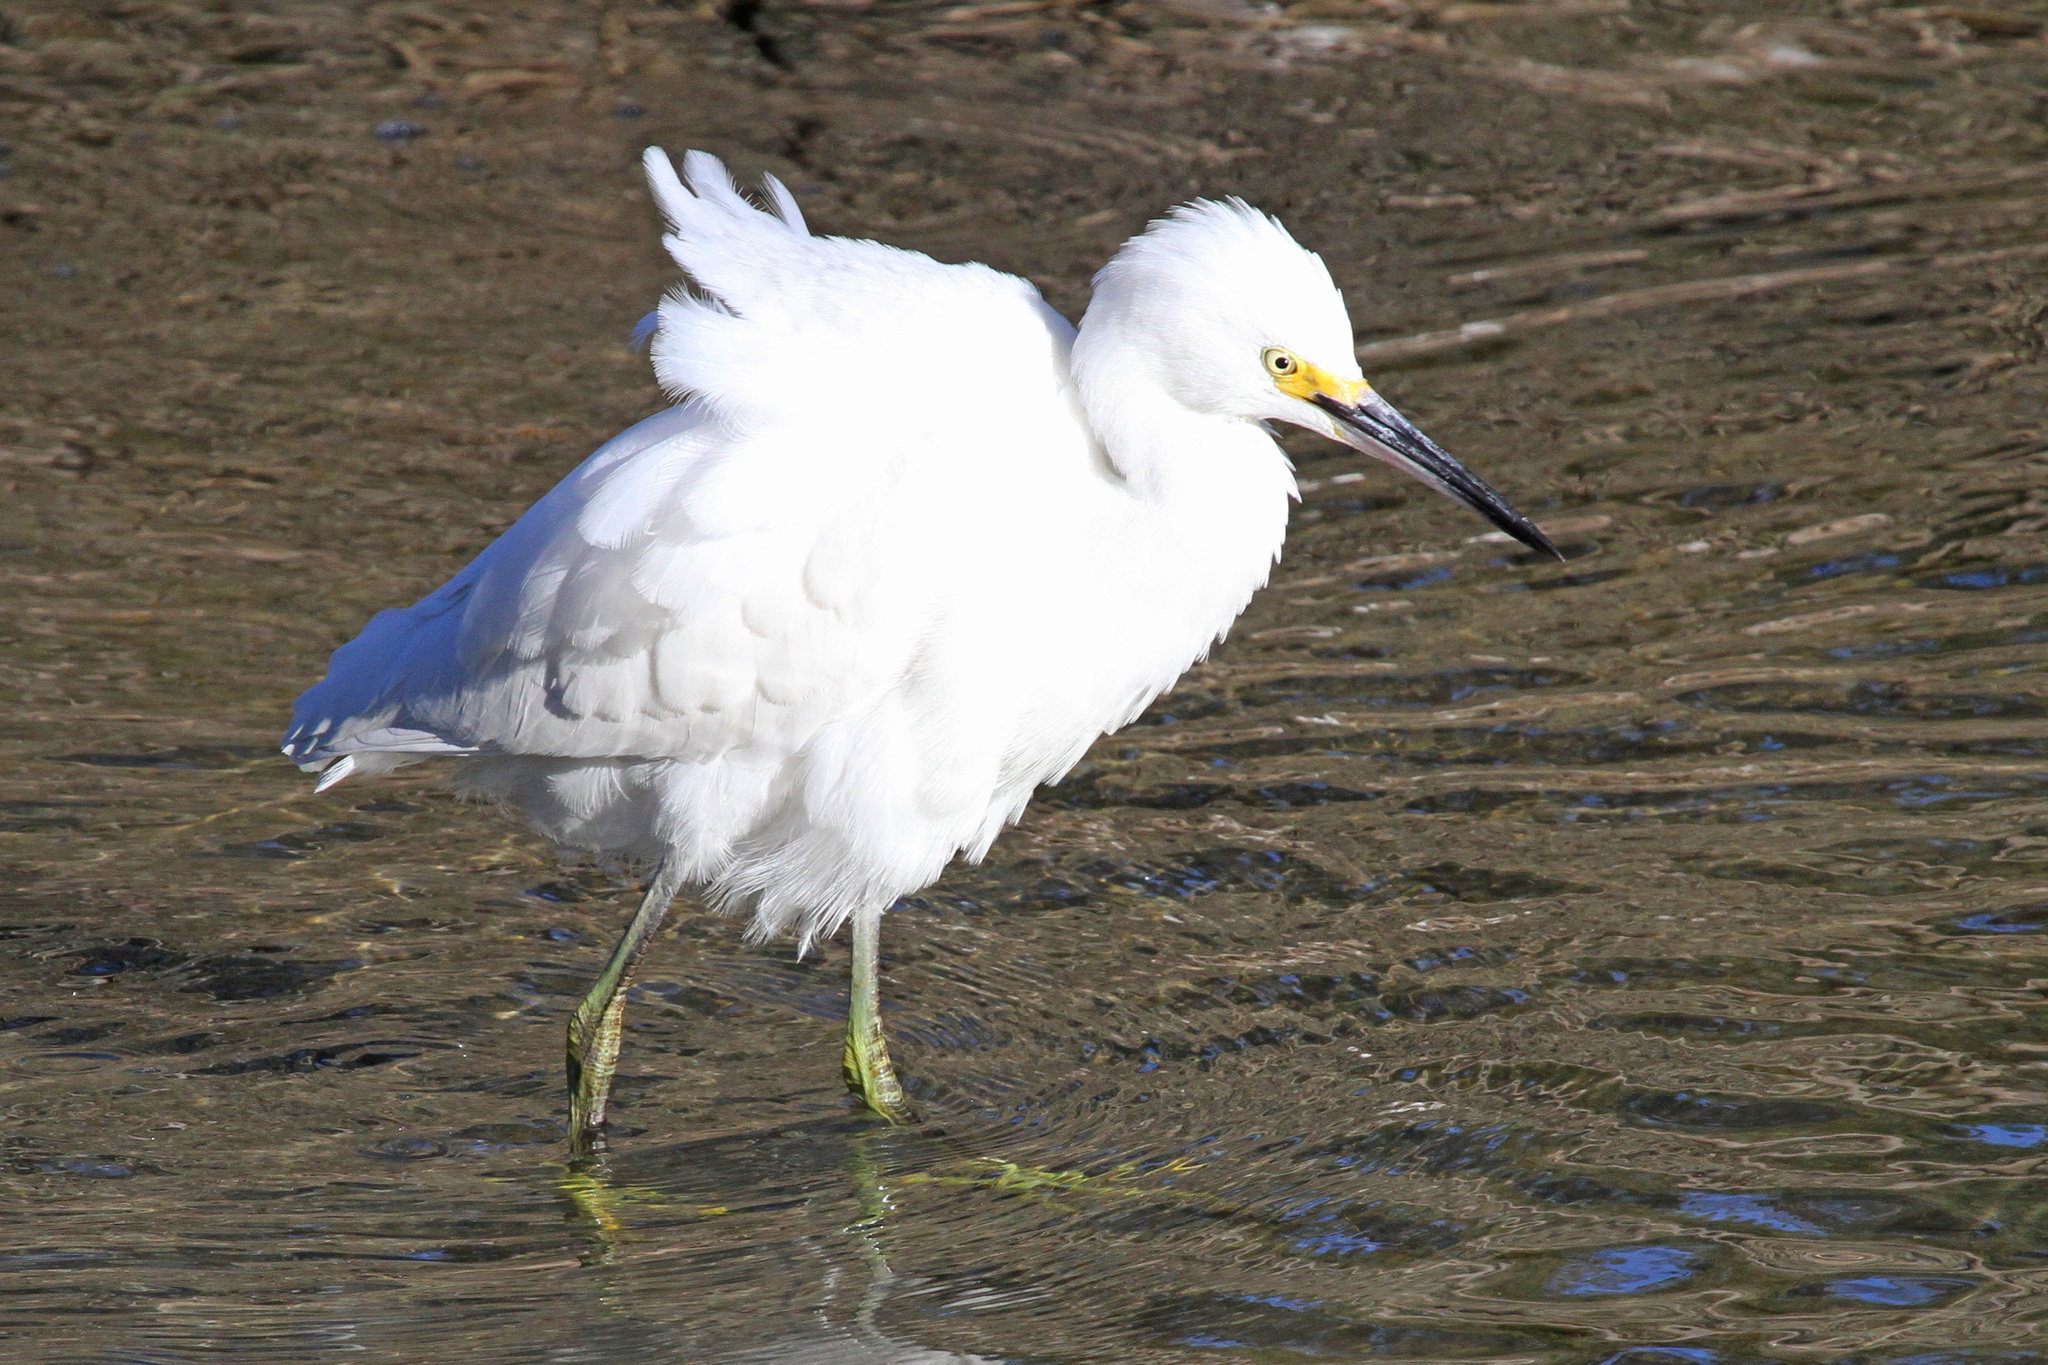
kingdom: Animalia
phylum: Chordata
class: Aves
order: Pelecaniformes
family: Ardeidae
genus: Egretta
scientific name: Egretta thula
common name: Snowy egret
